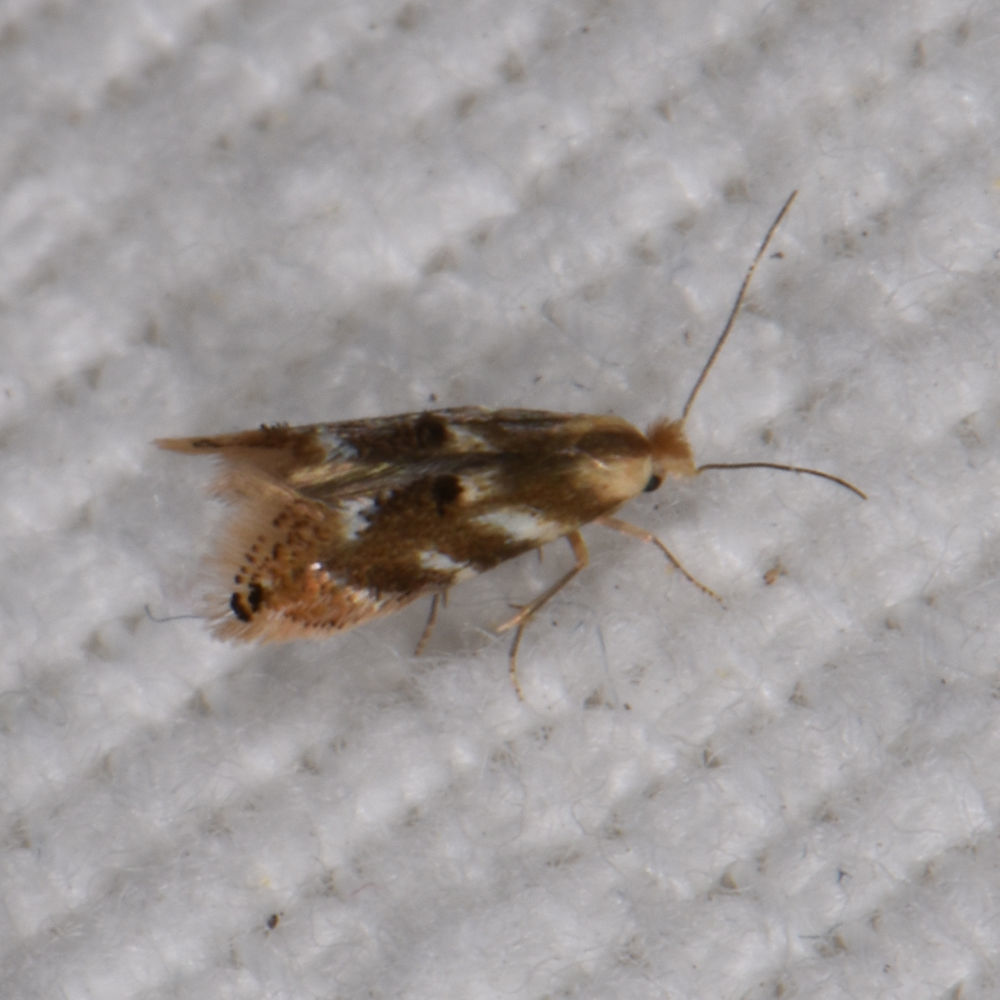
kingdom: Animalia
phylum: Arthropoda
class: Insecta
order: Lepidoptera
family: Bucculatricidae
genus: Bucculatrix
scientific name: Bucculatrix canadensisella
